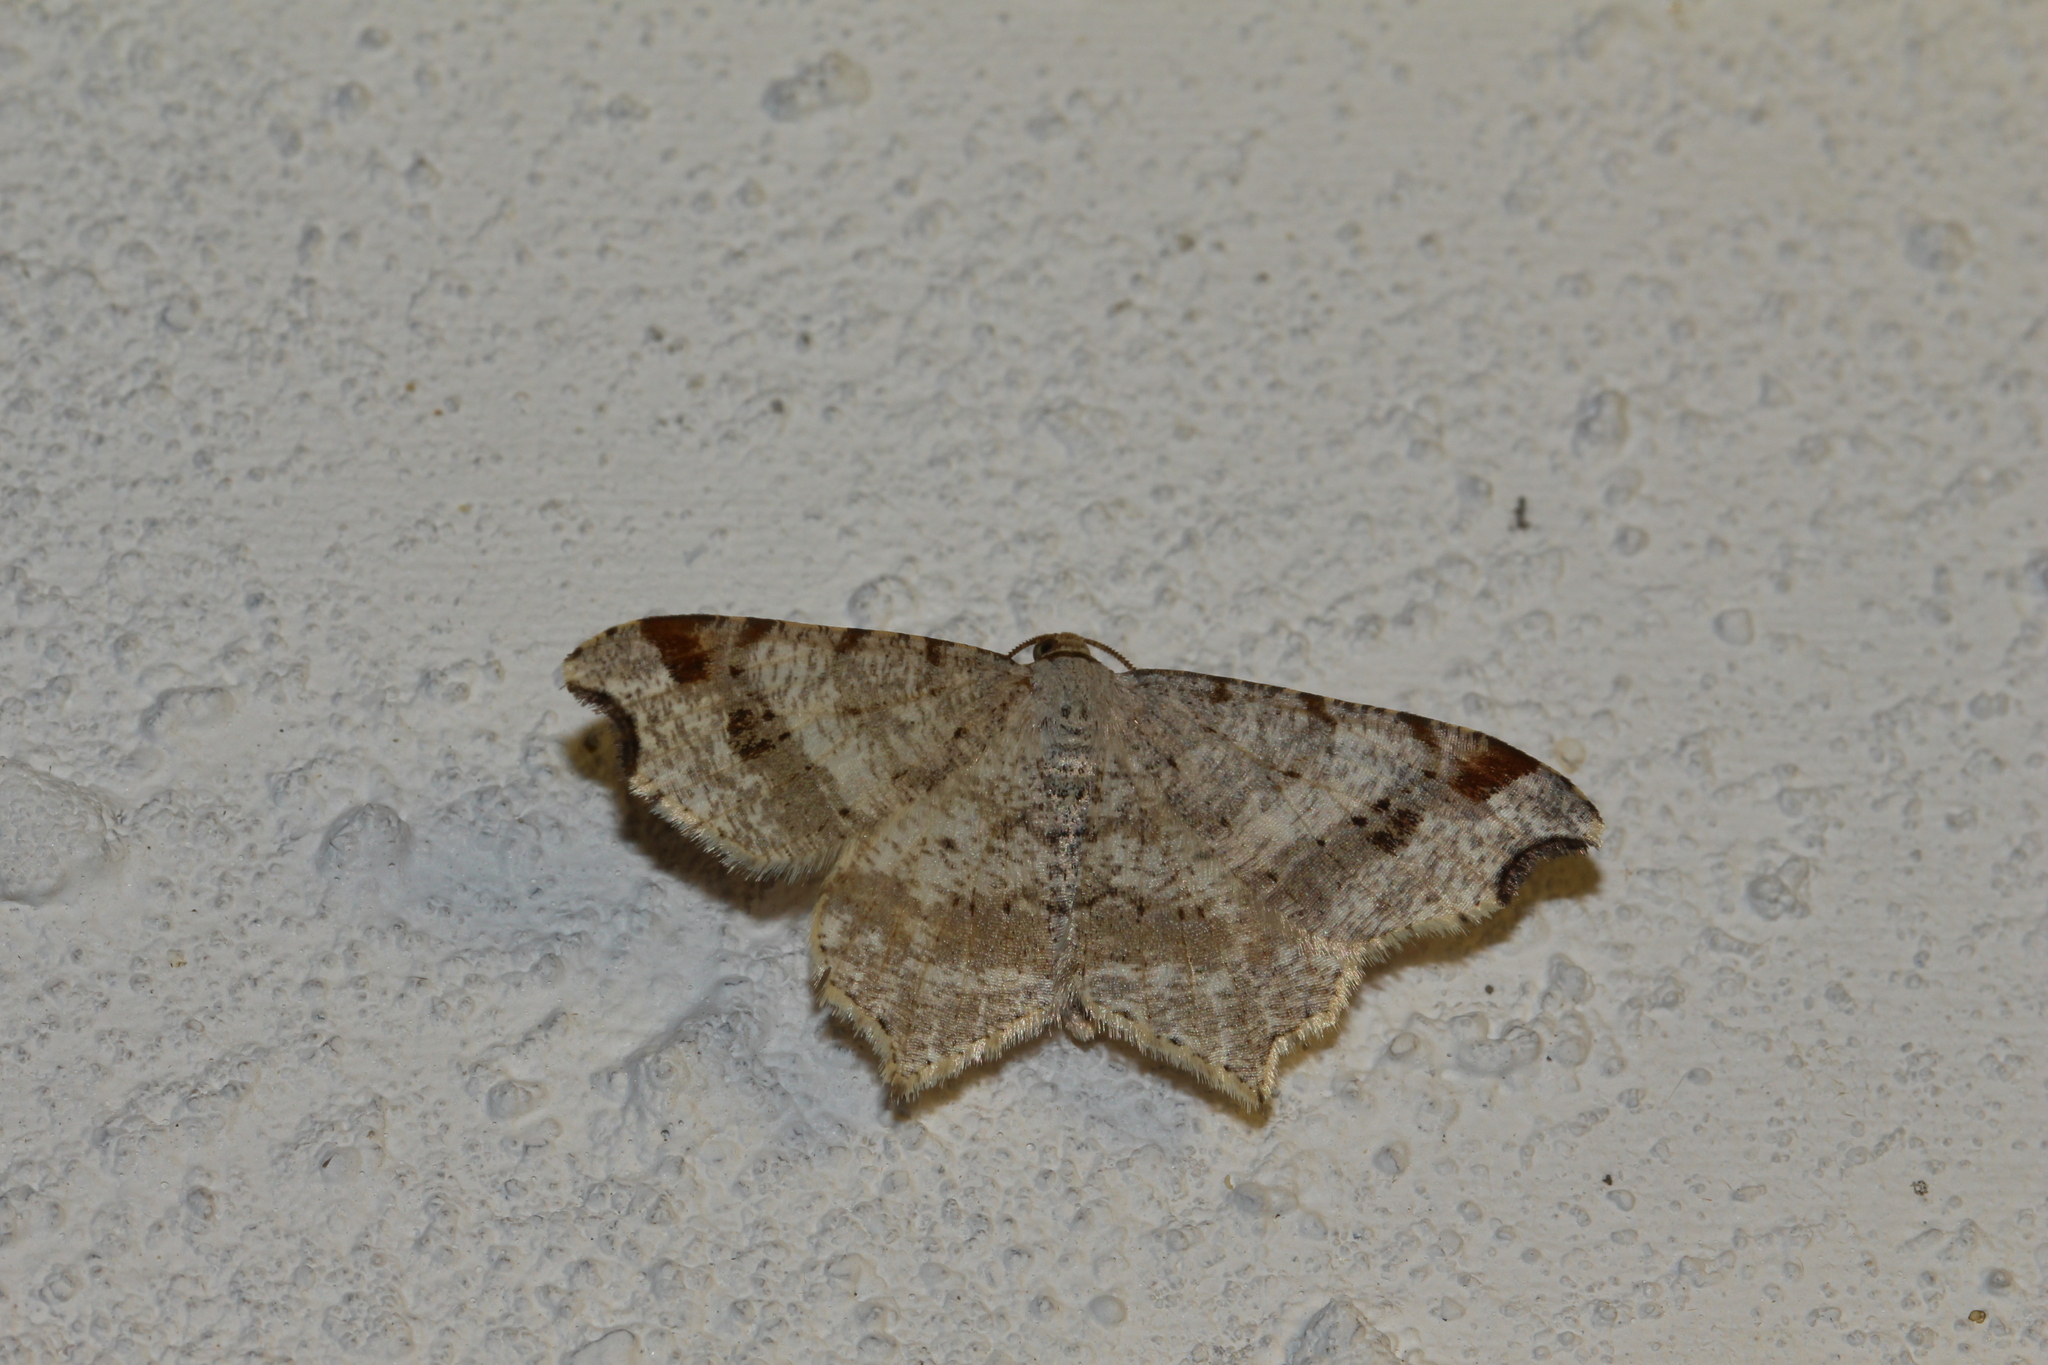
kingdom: Animalia
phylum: Arthropoda
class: Insecta
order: Lepidoptera
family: Geometridae
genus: Macaria
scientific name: Macaria alternata
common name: Sharp-angled peacock
